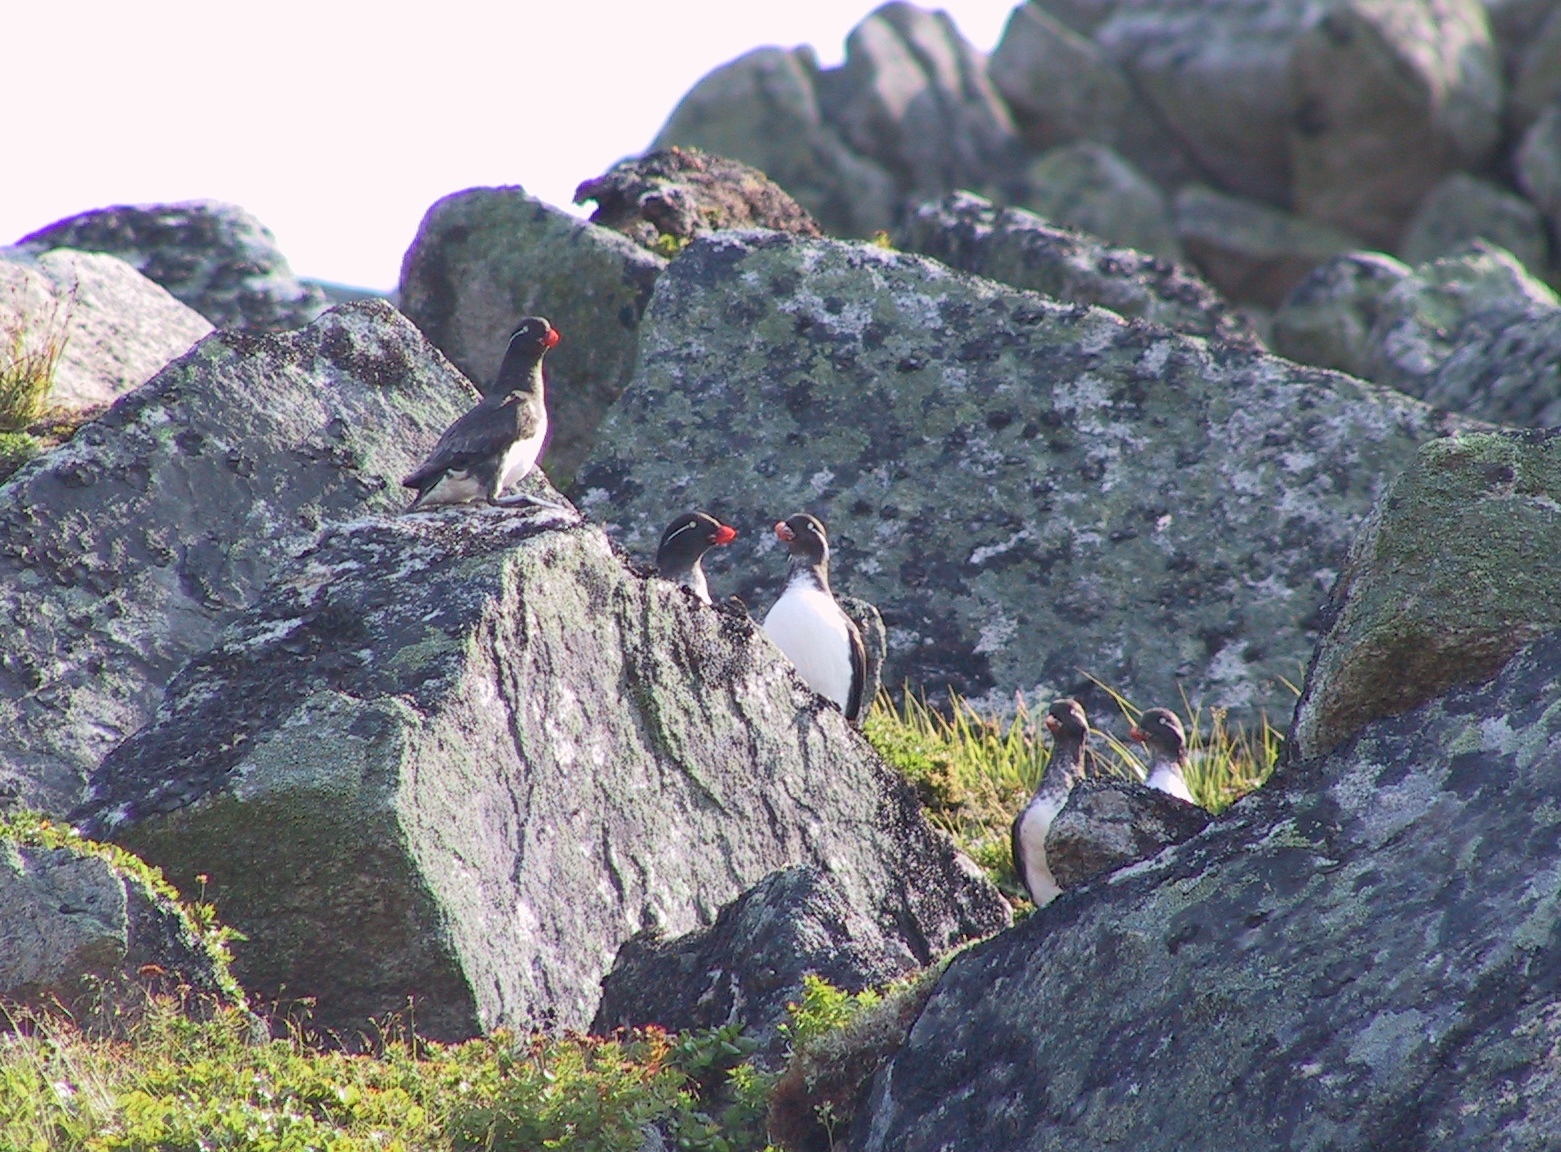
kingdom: Animalia
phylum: Chordata
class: Aves
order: Charadriiformes
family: Alcidae
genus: Aethia
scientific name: Aethia psittacula
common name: Parakeet auklet
